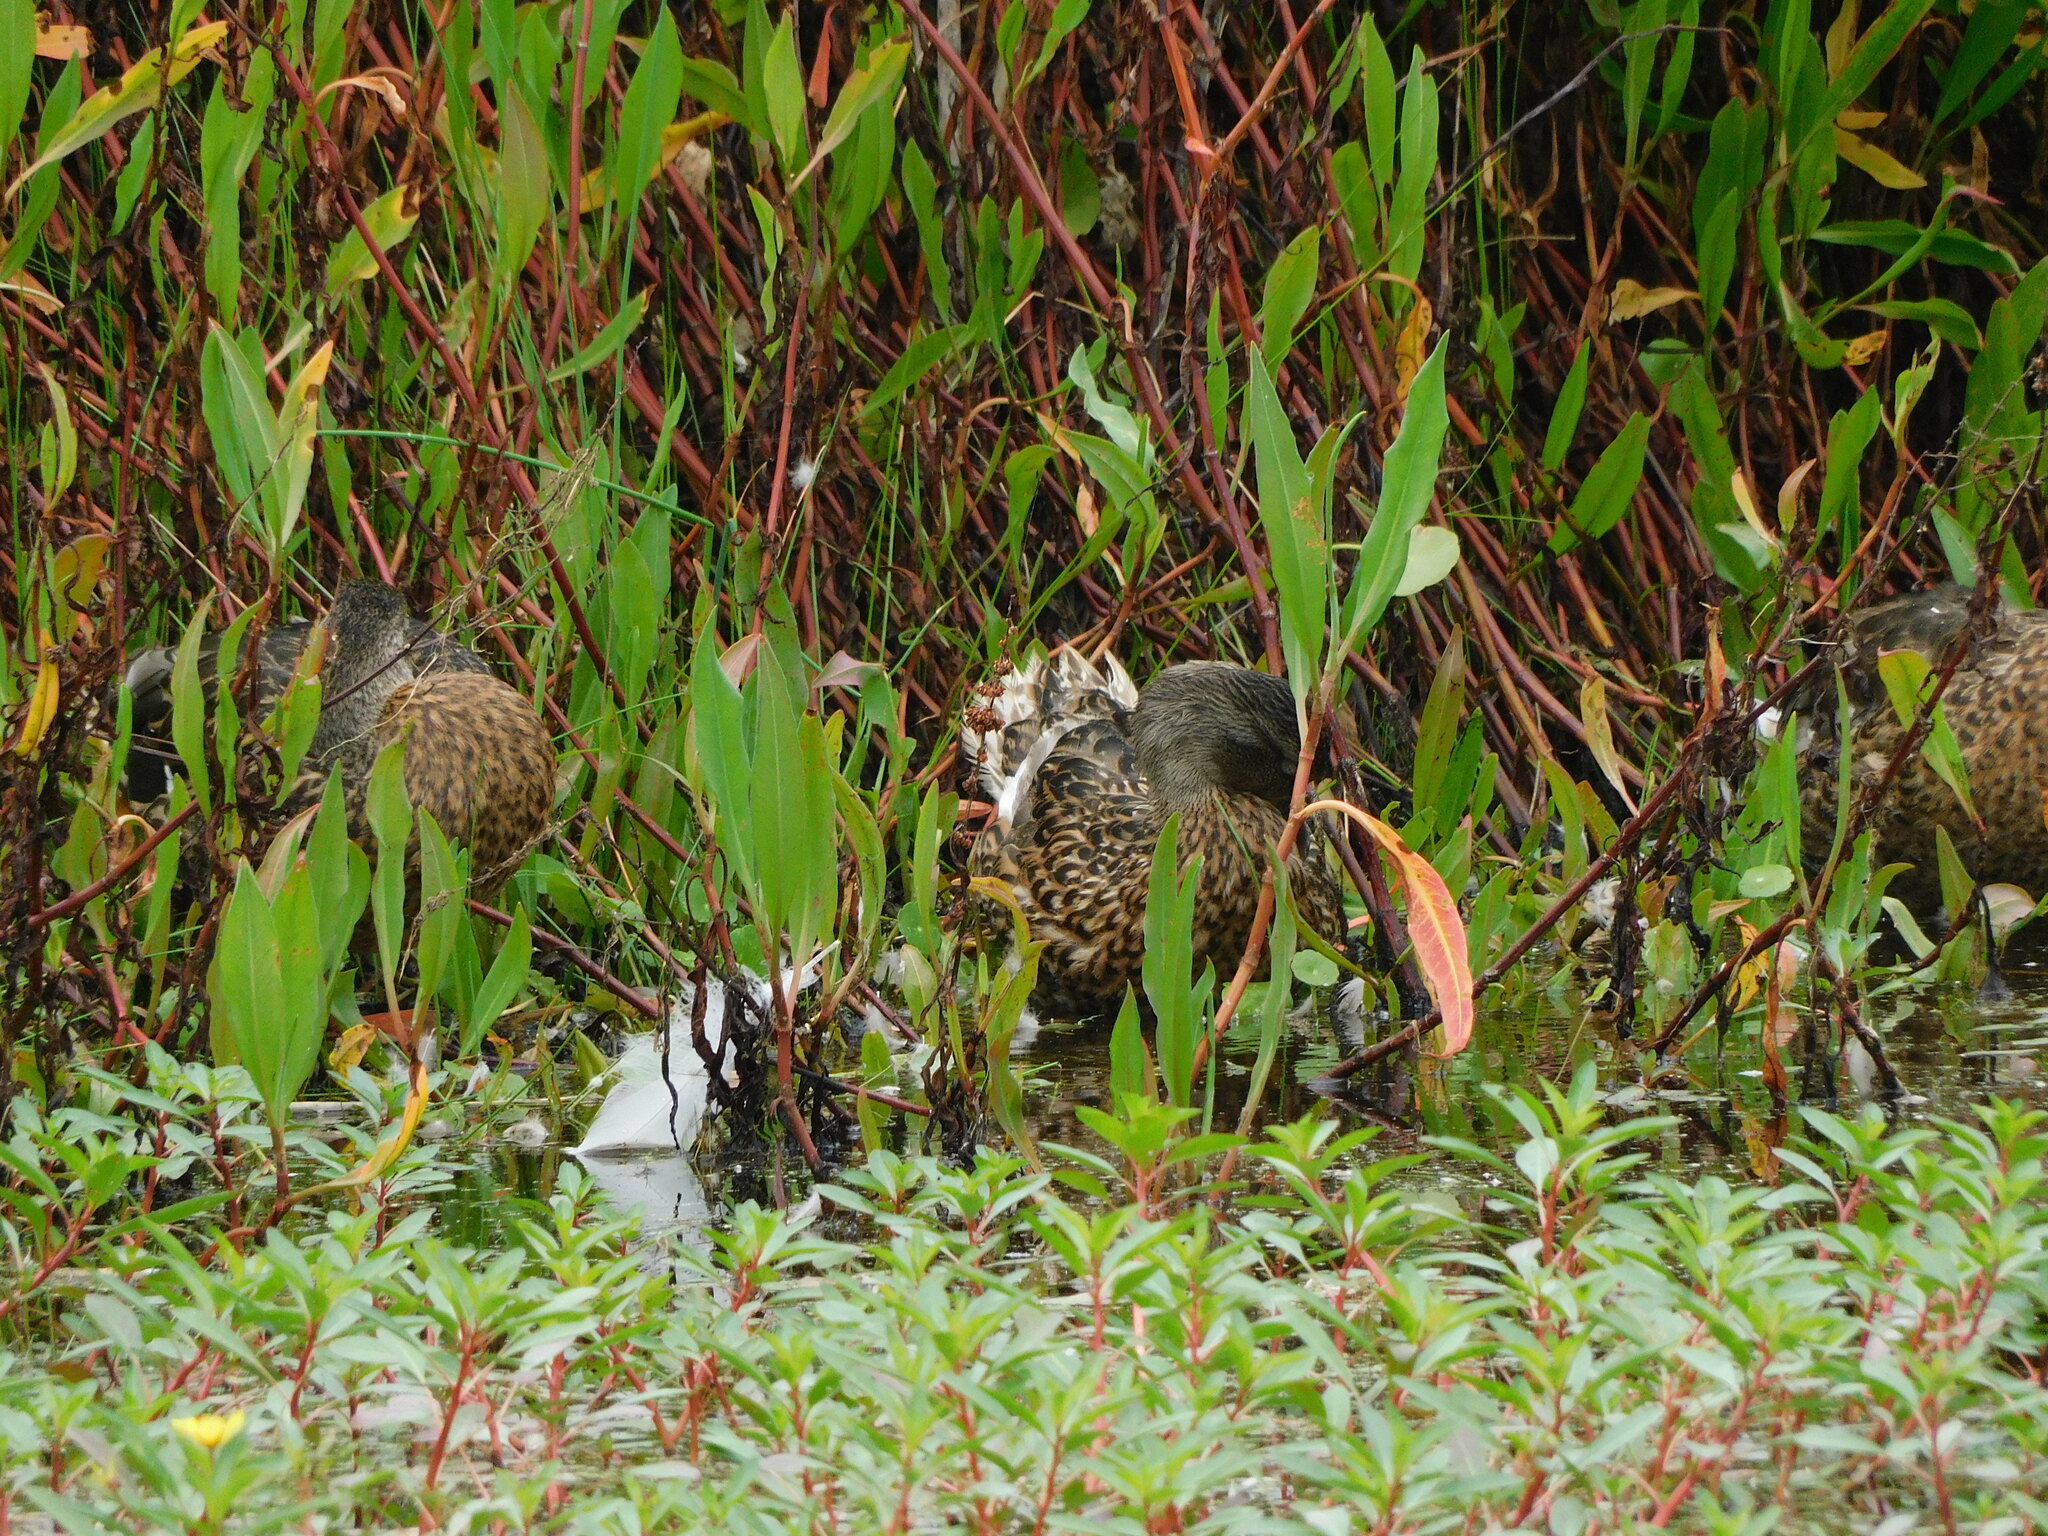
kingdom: Animalia
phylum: Chordata
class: Aves
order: Anseriformes
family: Anatidae
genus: Anas
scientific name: Anas platyrhynchos
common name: Mallard
